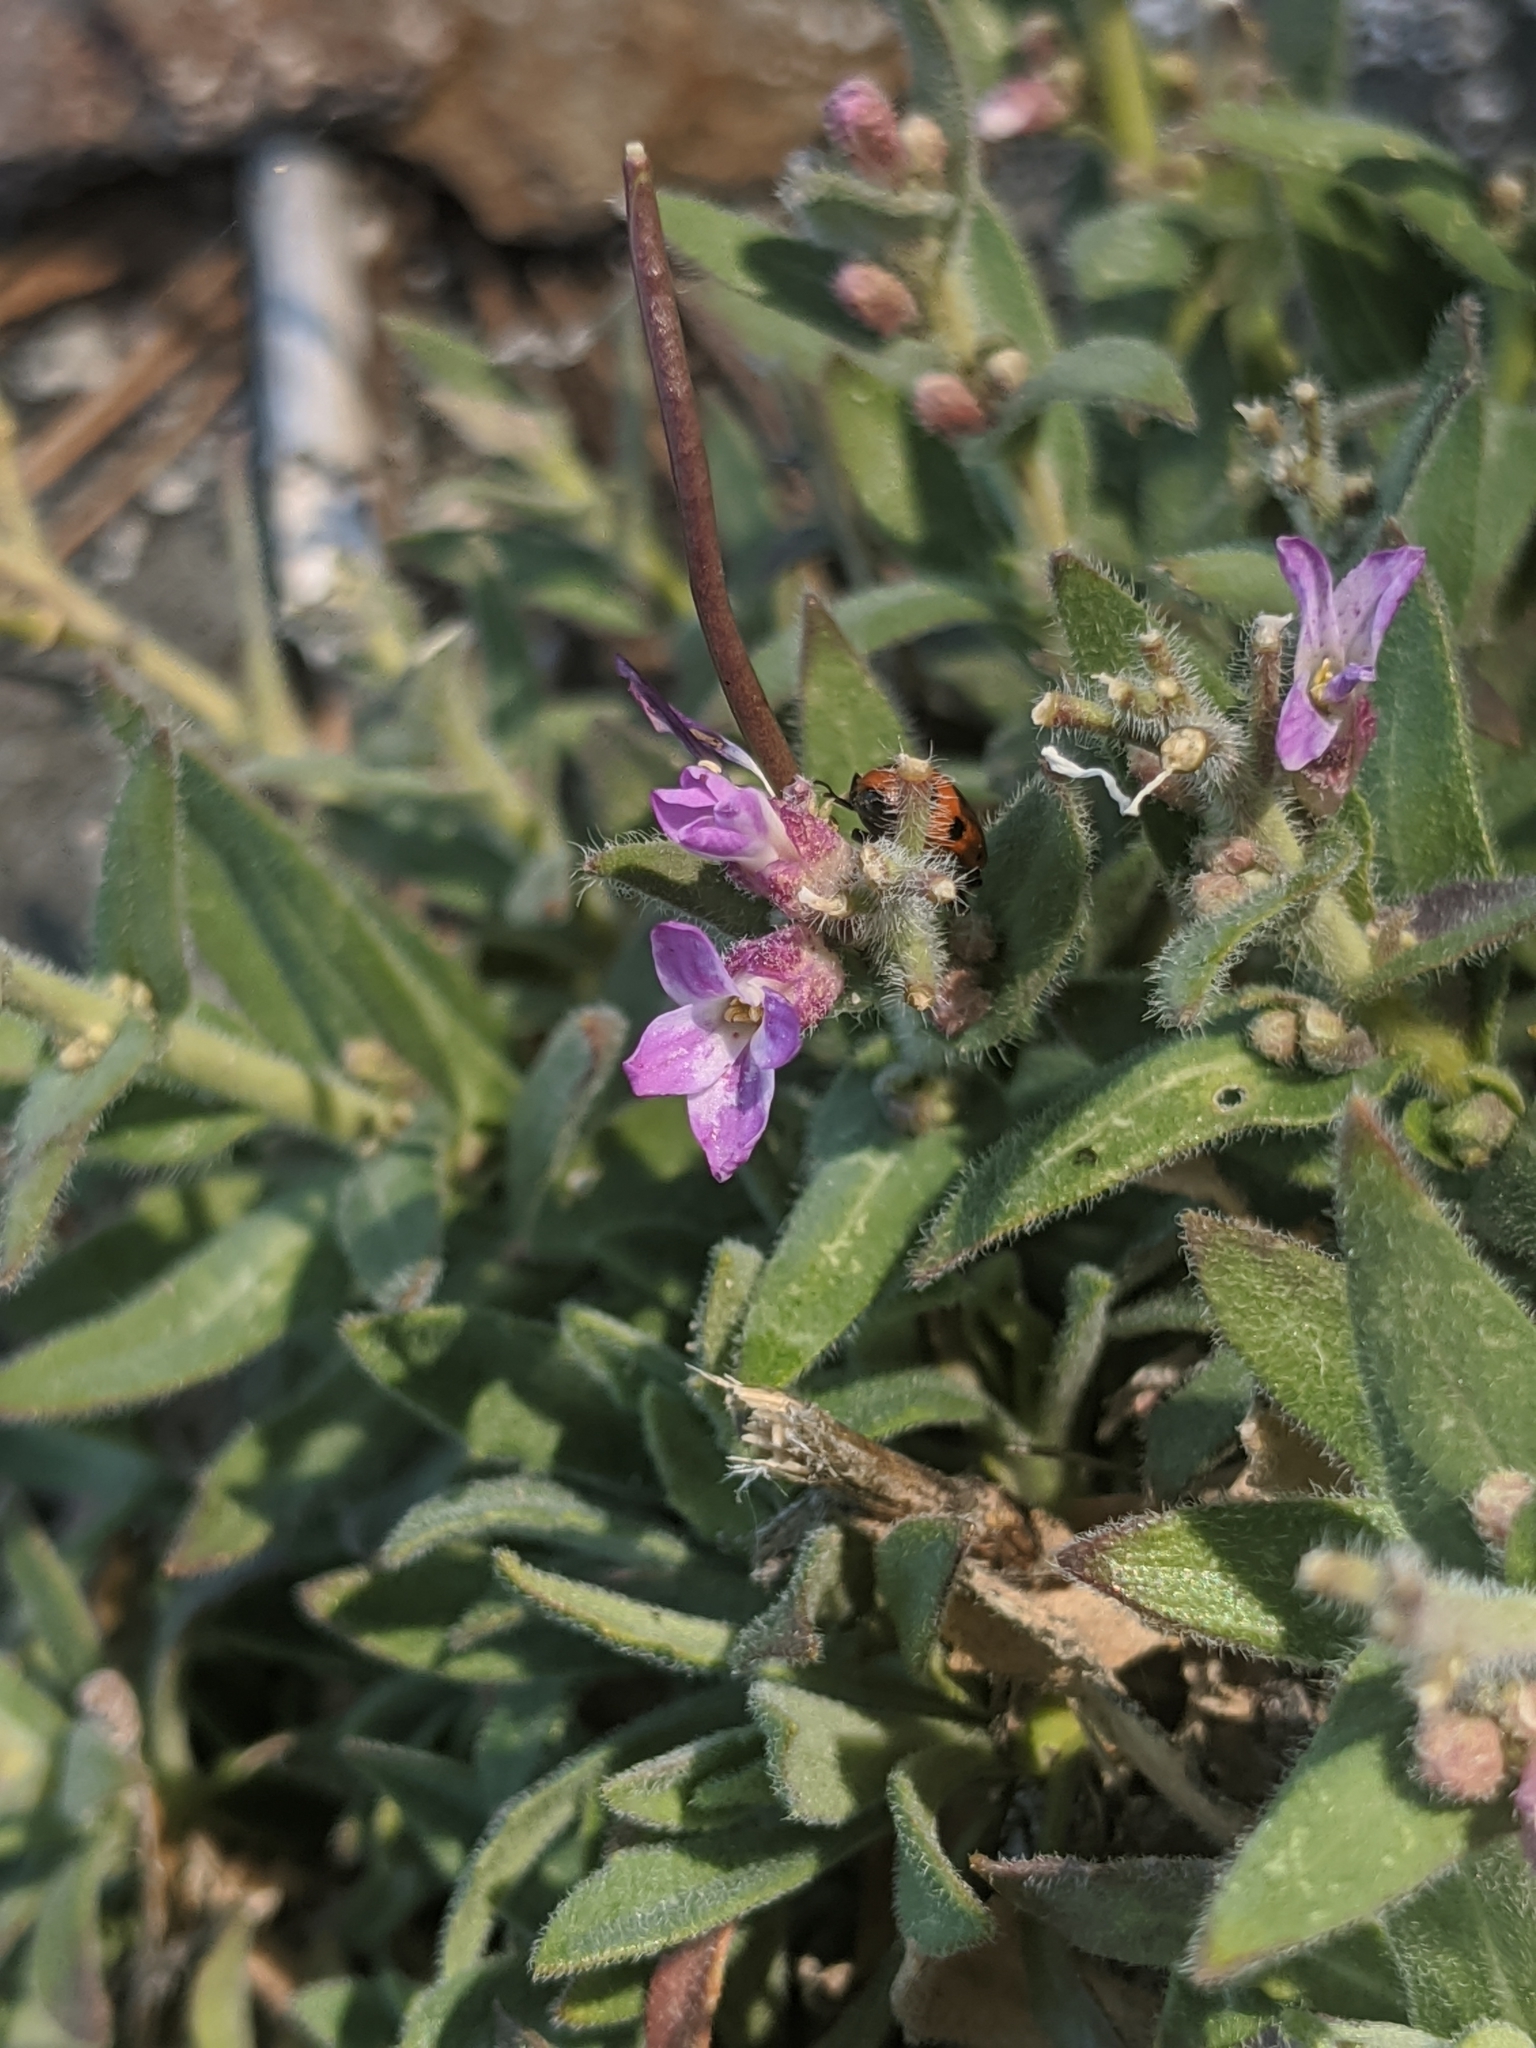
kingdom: Plantae
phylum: Tracheophyta
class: Magnoliopsida
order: Brassicales
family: Brassicaceae
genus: Boechera
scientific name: Boechera breweri
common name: Brewer's rockcress
